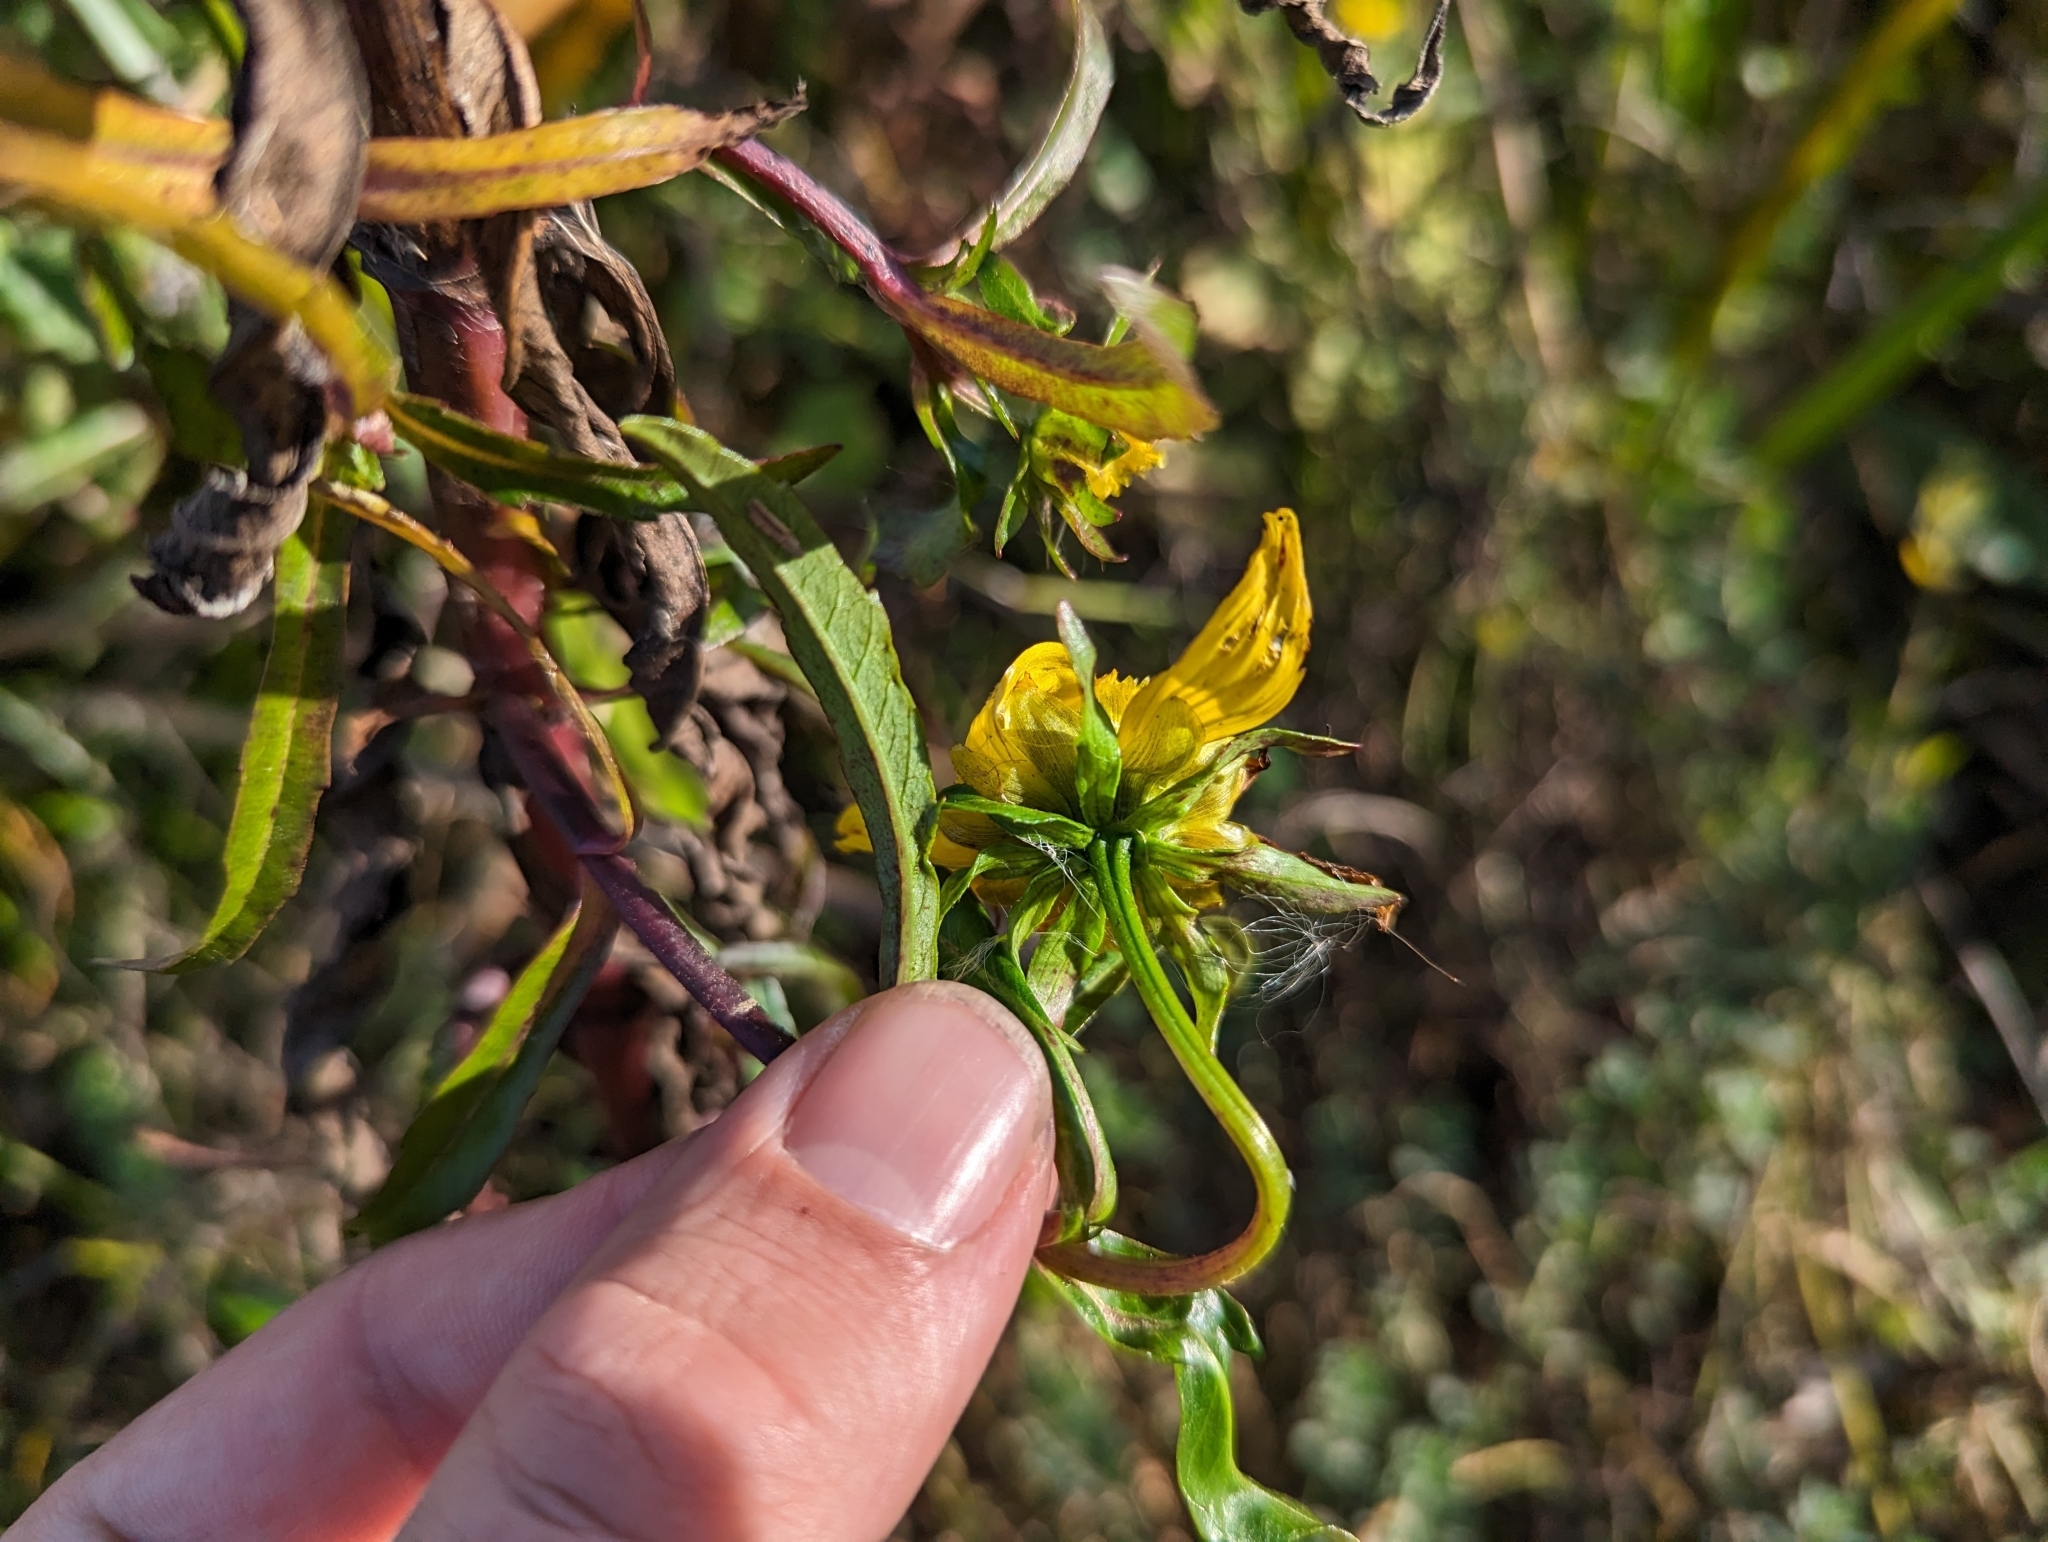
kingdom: Plantae
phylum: Tracheophyta
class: Magnoliopsida
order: Asterales
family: Asteraceae
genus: Bidens
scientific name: Bidens laevis
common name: Larger bur-marigold
